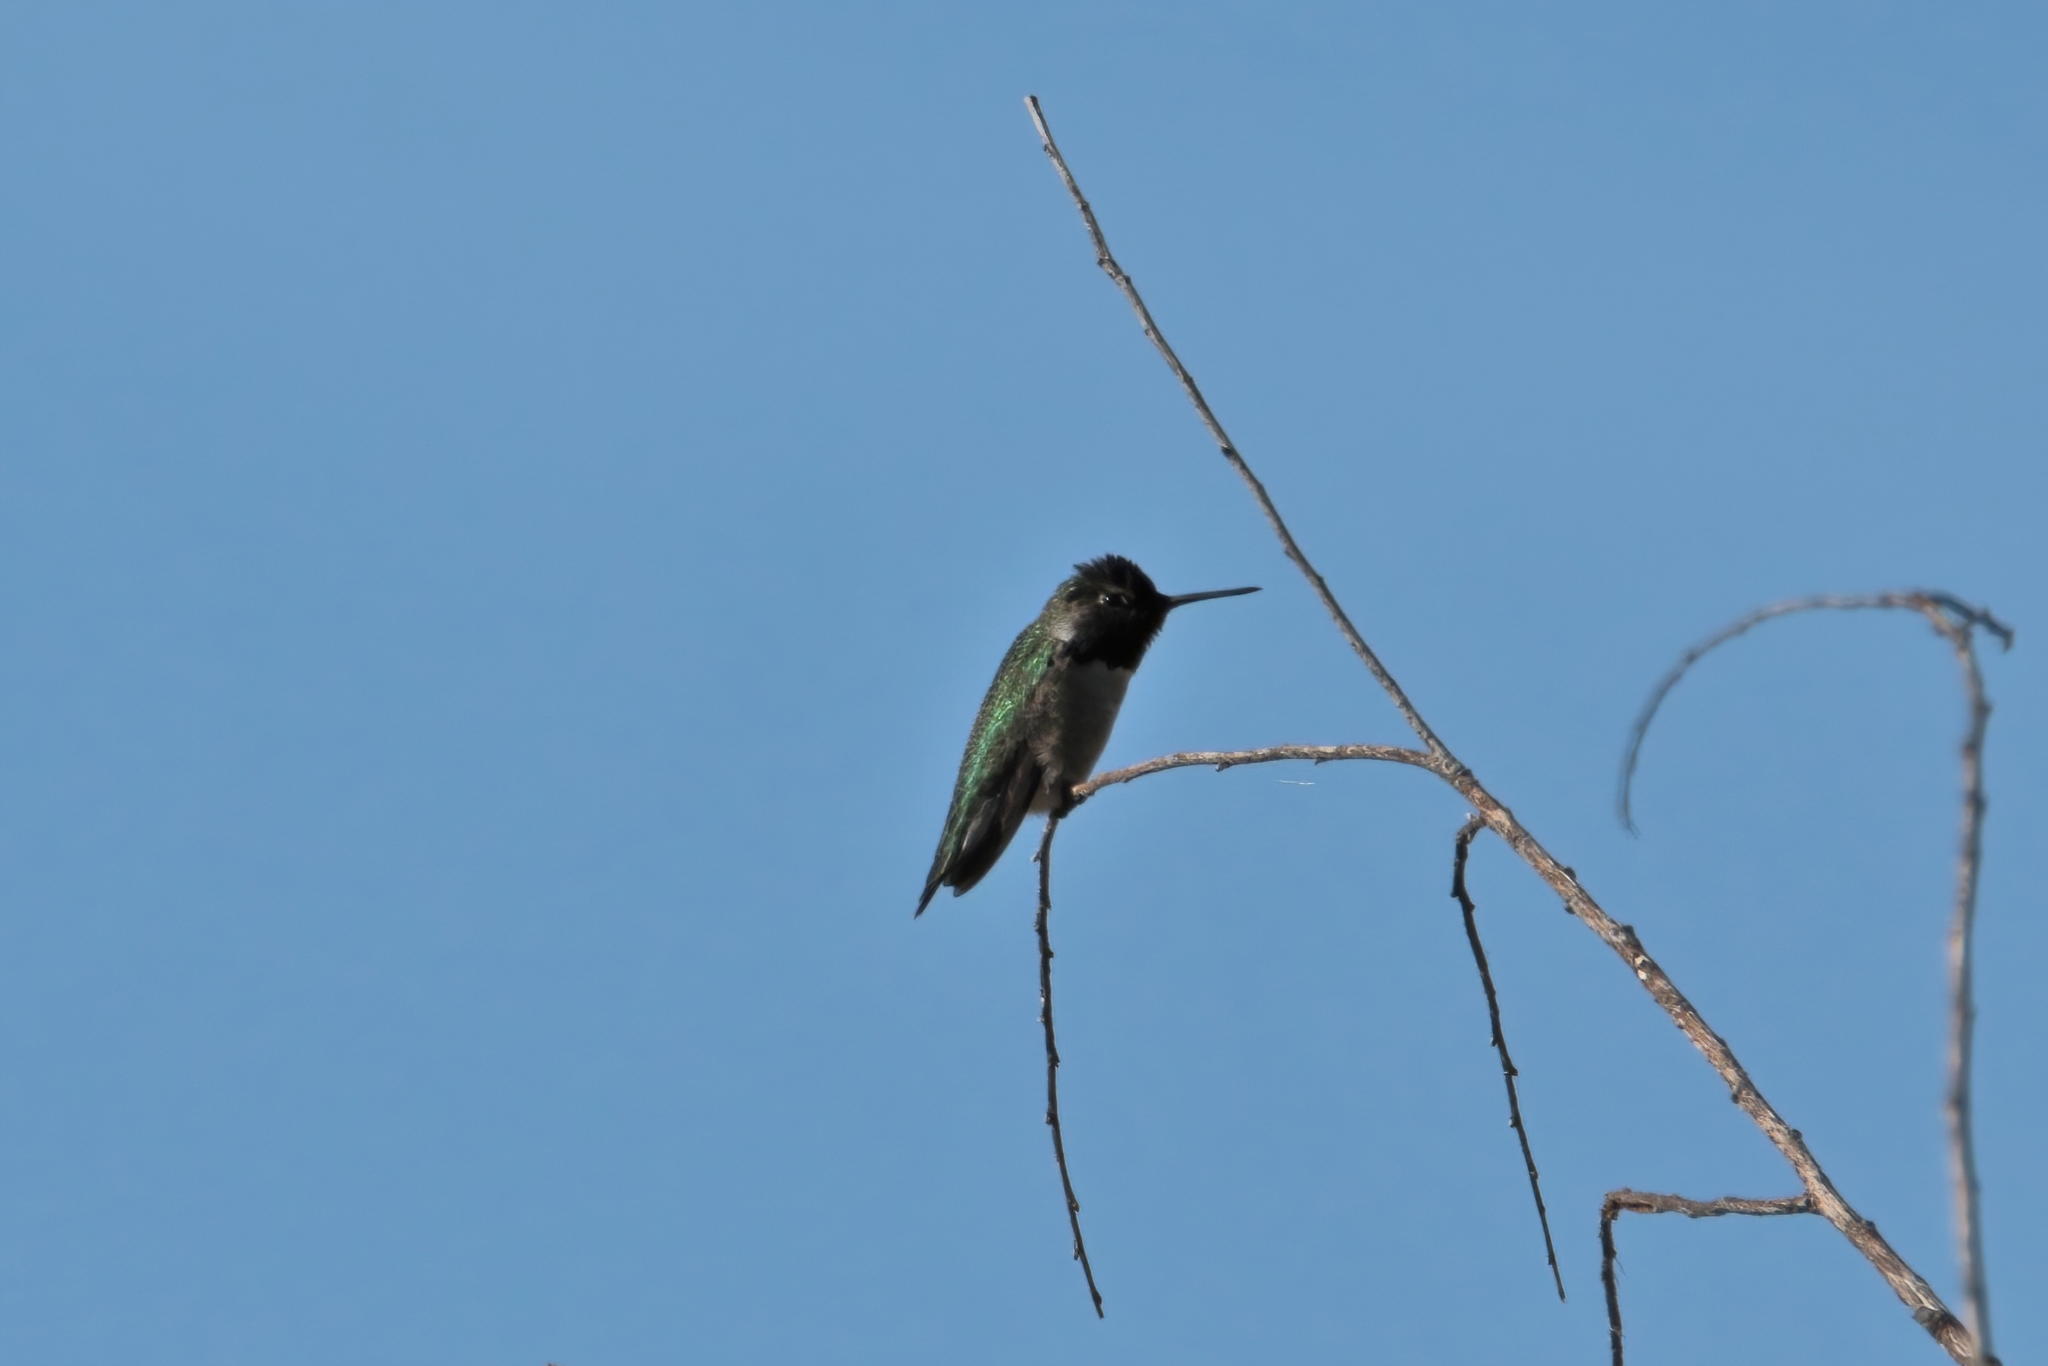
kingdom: Animalia
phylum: Chordata
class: Aves
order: Apodiformes
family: Trochilidae
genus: Calypte
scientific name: Calypte anna
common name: Anna's hummingbird
